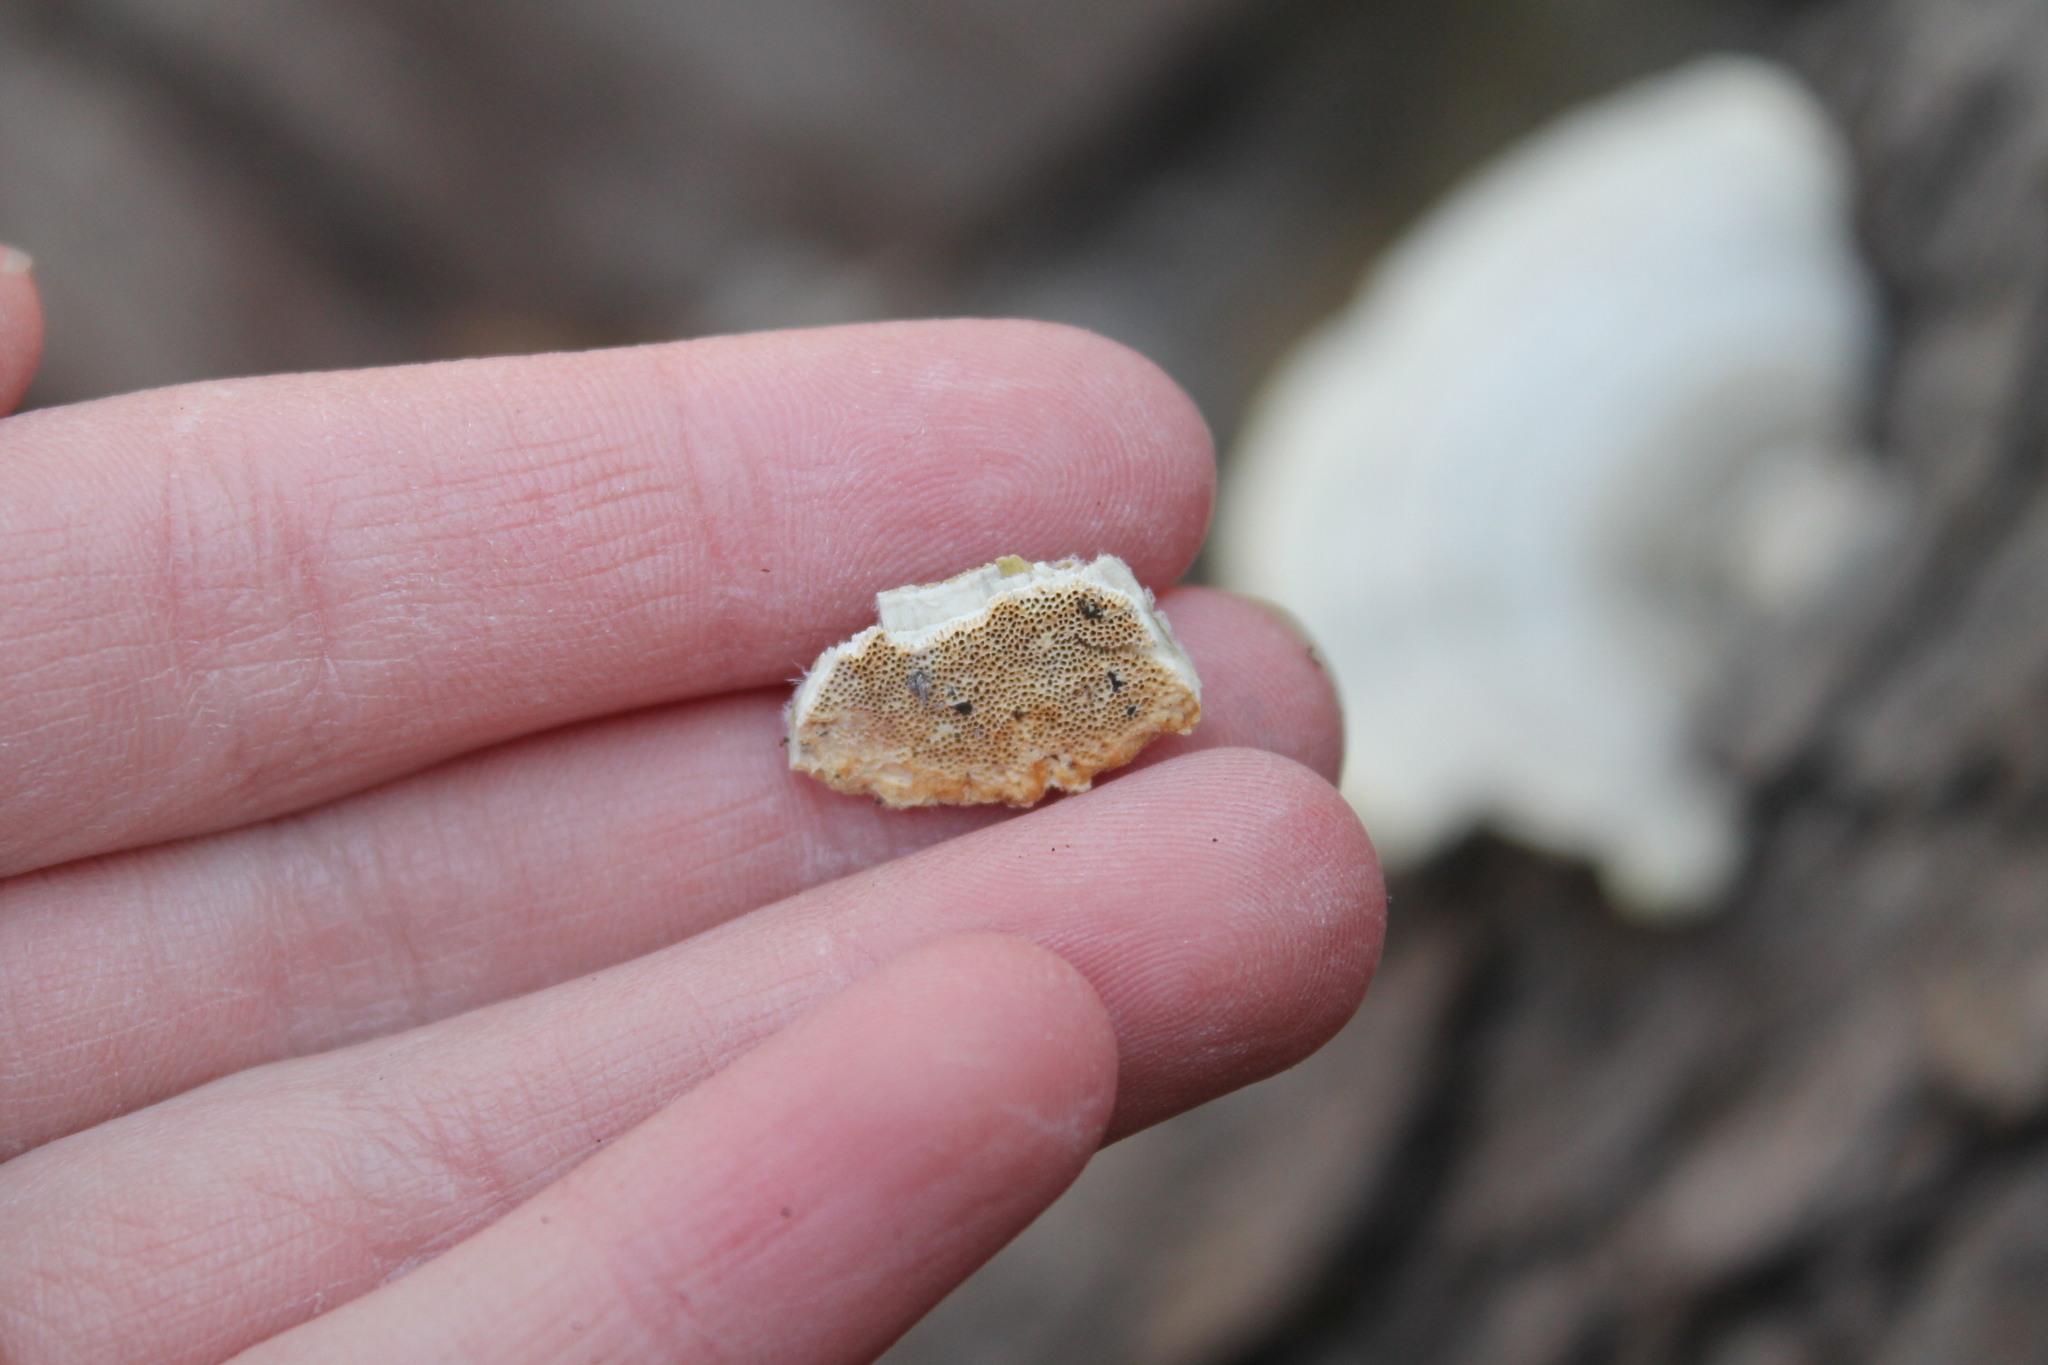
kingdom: Fungi
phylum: Basidiomycota
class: Agaricomycetes
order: Polyporales
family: Polyporaceae
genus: Trametes
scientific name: Trametes hirsuta
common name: Hairy bracket
